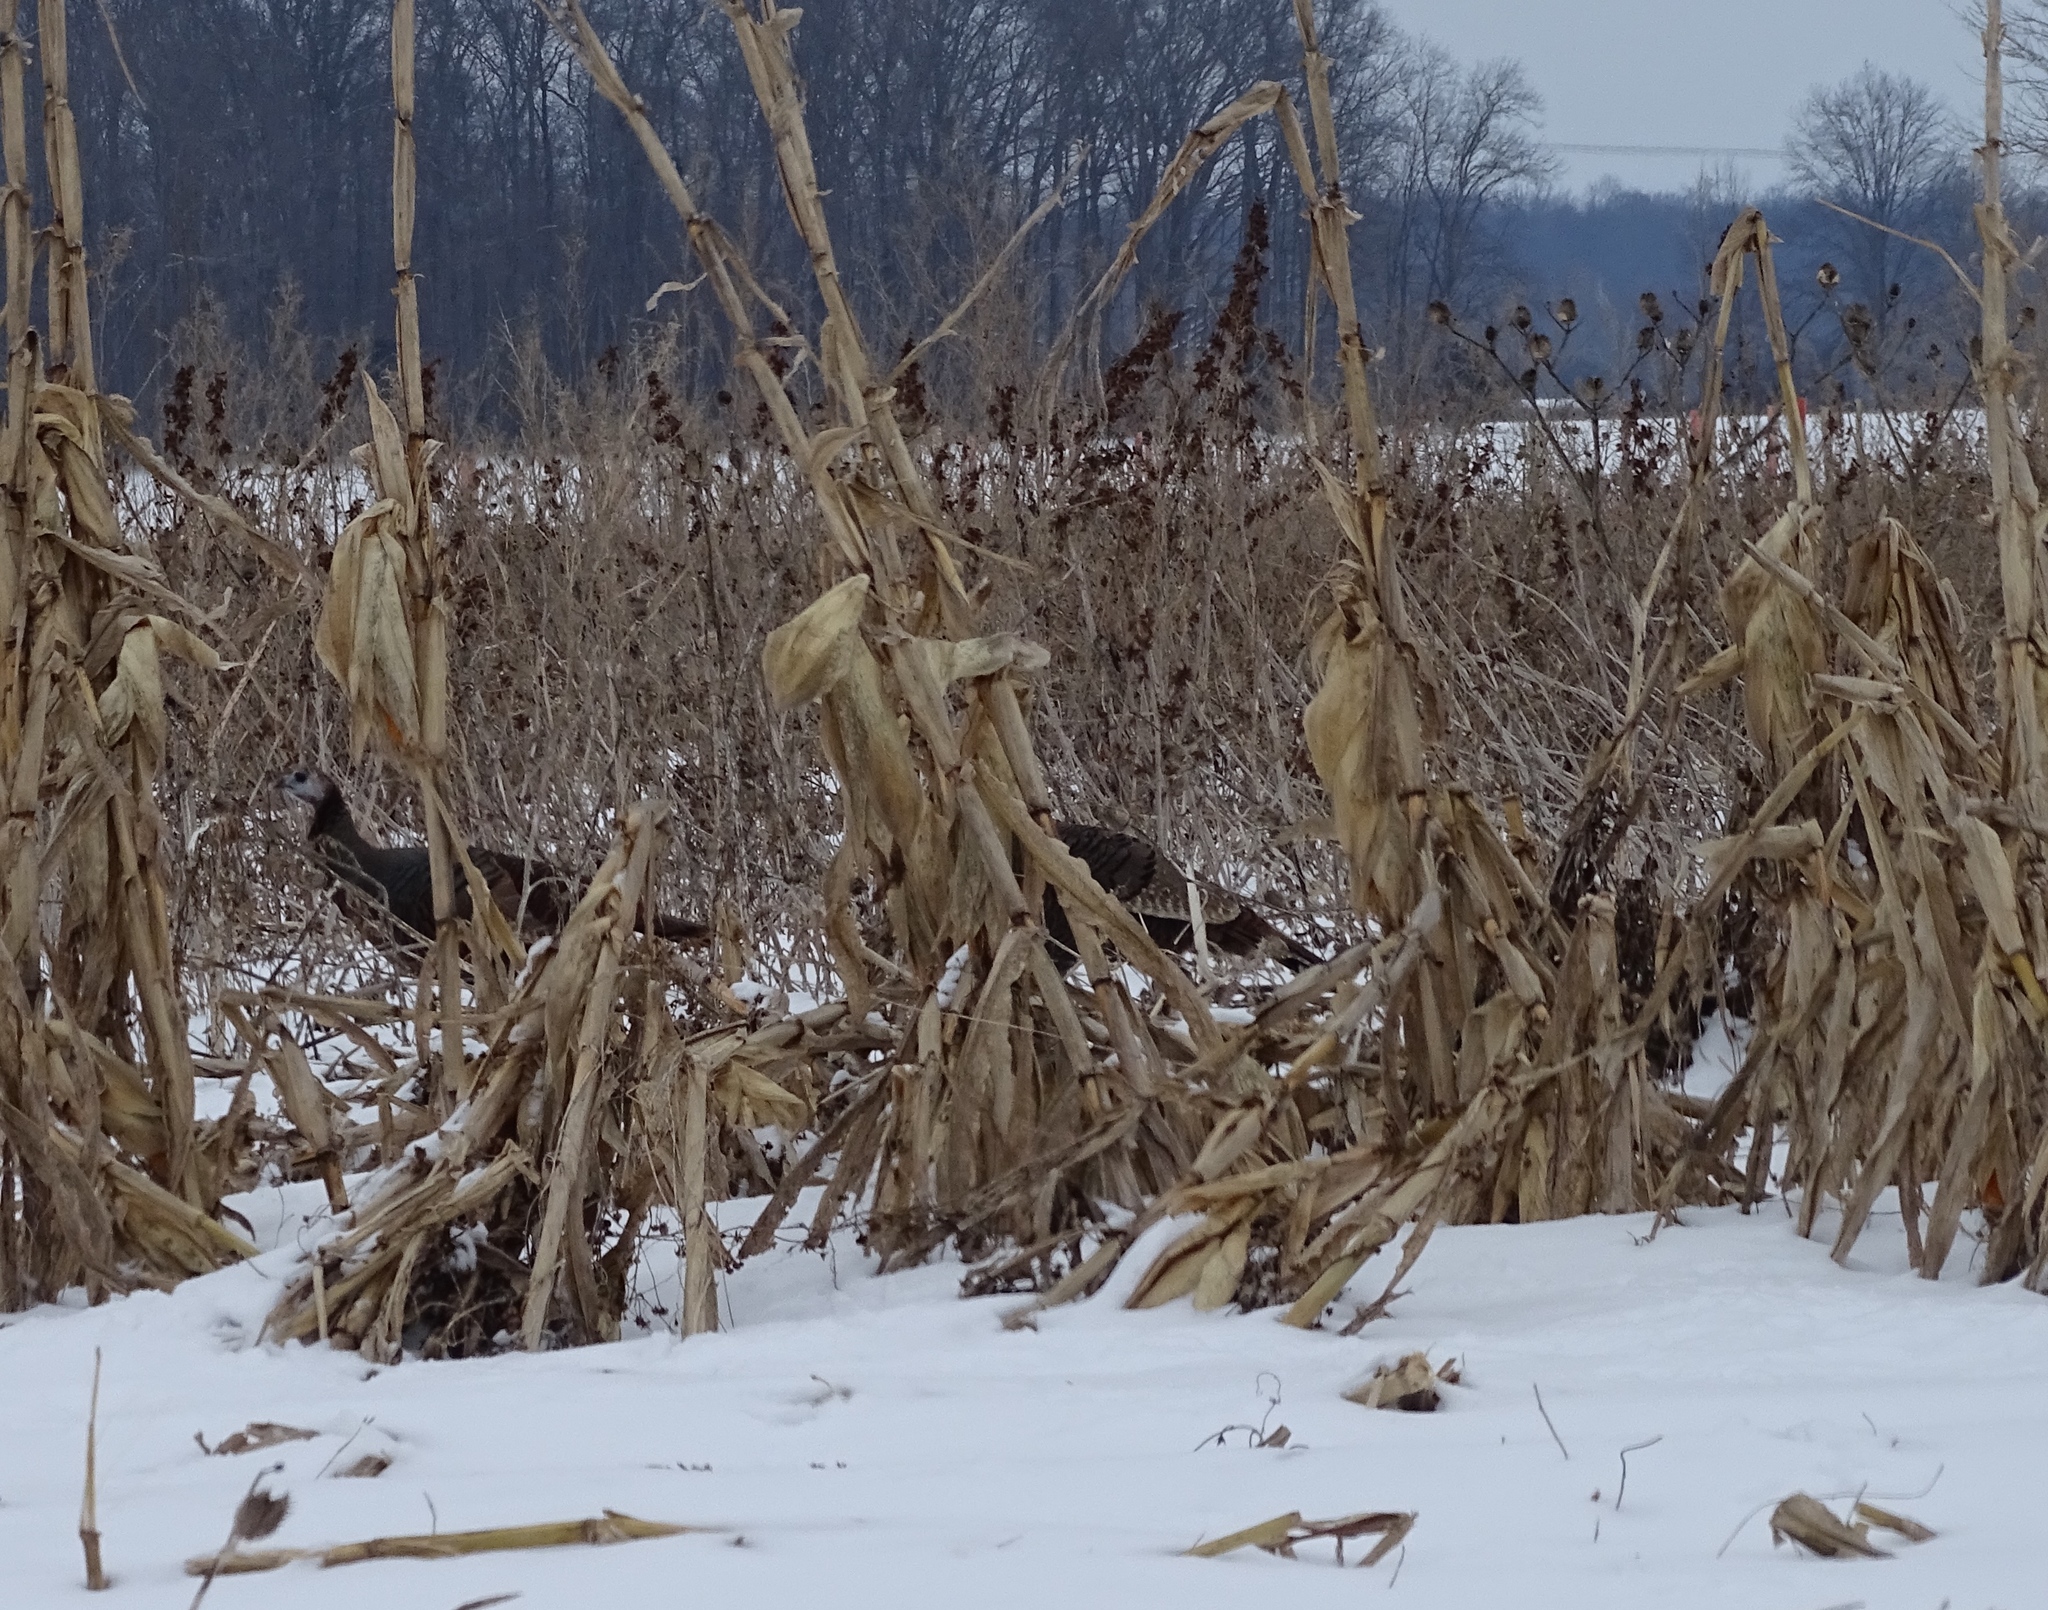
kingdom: Animalia
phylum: Chordata
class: Aves
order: Galliformes
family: Phasianidae
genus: Meleagris
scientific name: Meleagris gallopavo
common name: Wild turkey
